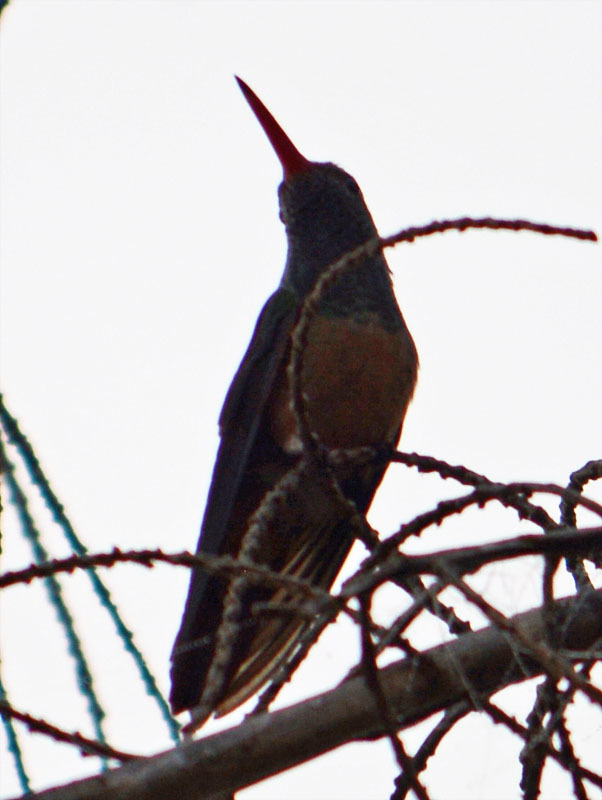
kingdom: Animalia
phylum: Chordata
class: Aves
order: Apodiformes
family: Trochilidae
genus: Amazilia
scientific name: Amazilia yucatanensis
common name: Buff-bellied hummingbird
